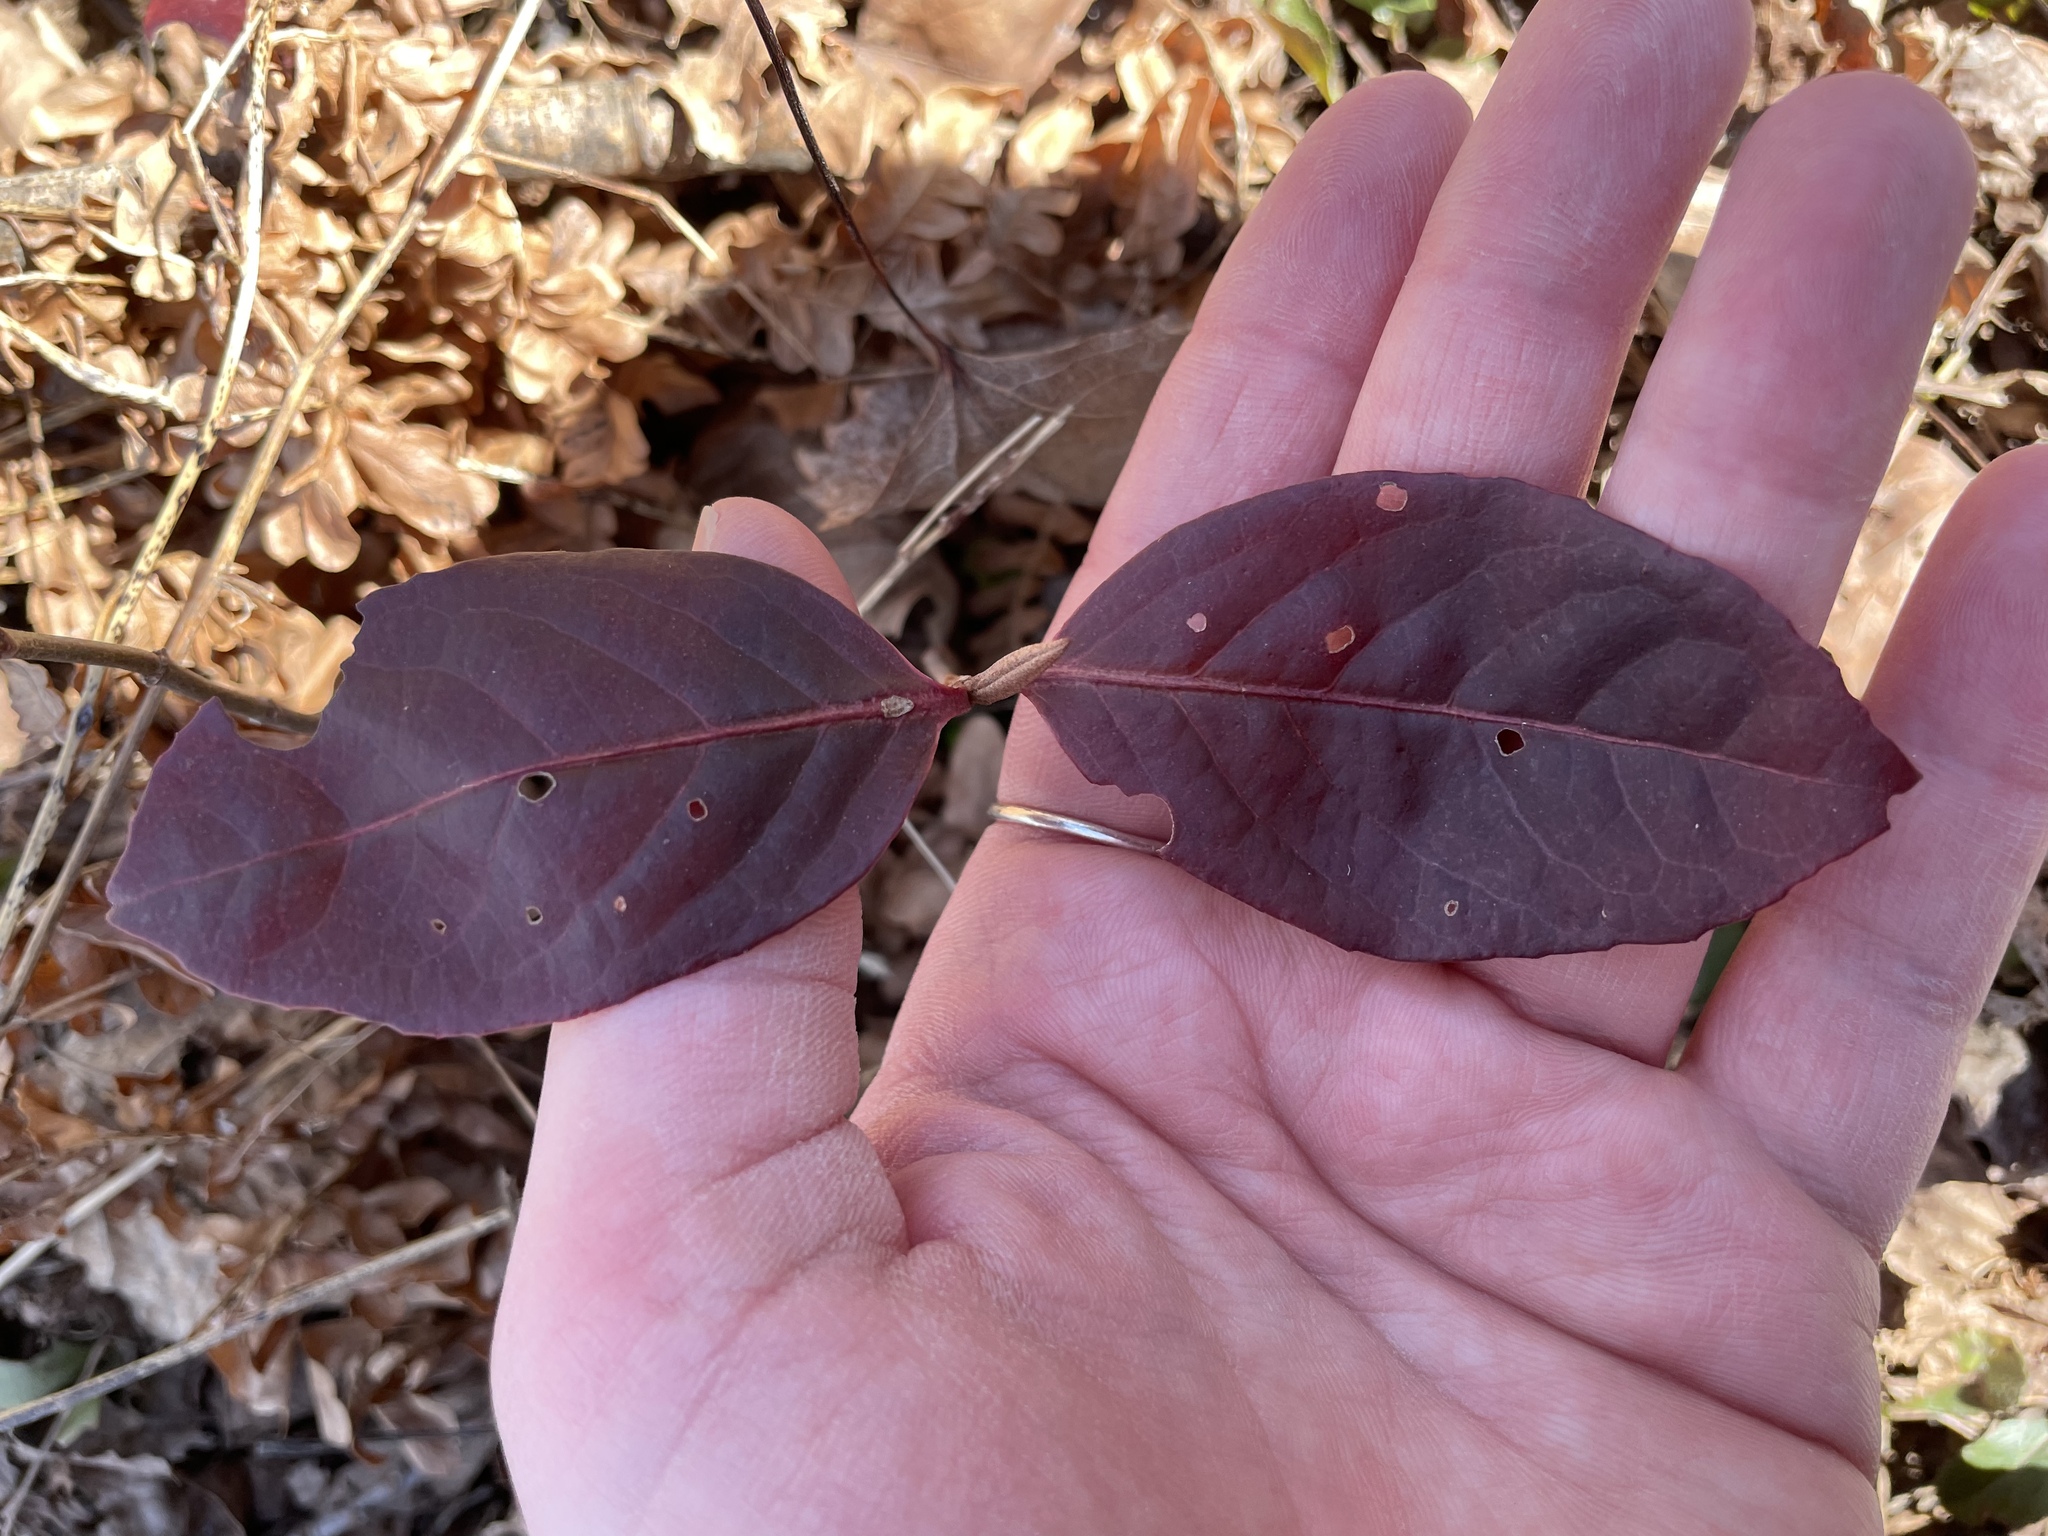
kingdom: Plantae
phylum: Tracheophyta
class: Magnoliopsida
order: Dipsacales
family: Viburnaceae
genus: Viburnum
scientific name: Viburnum cassinoides
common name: Swamp haw
